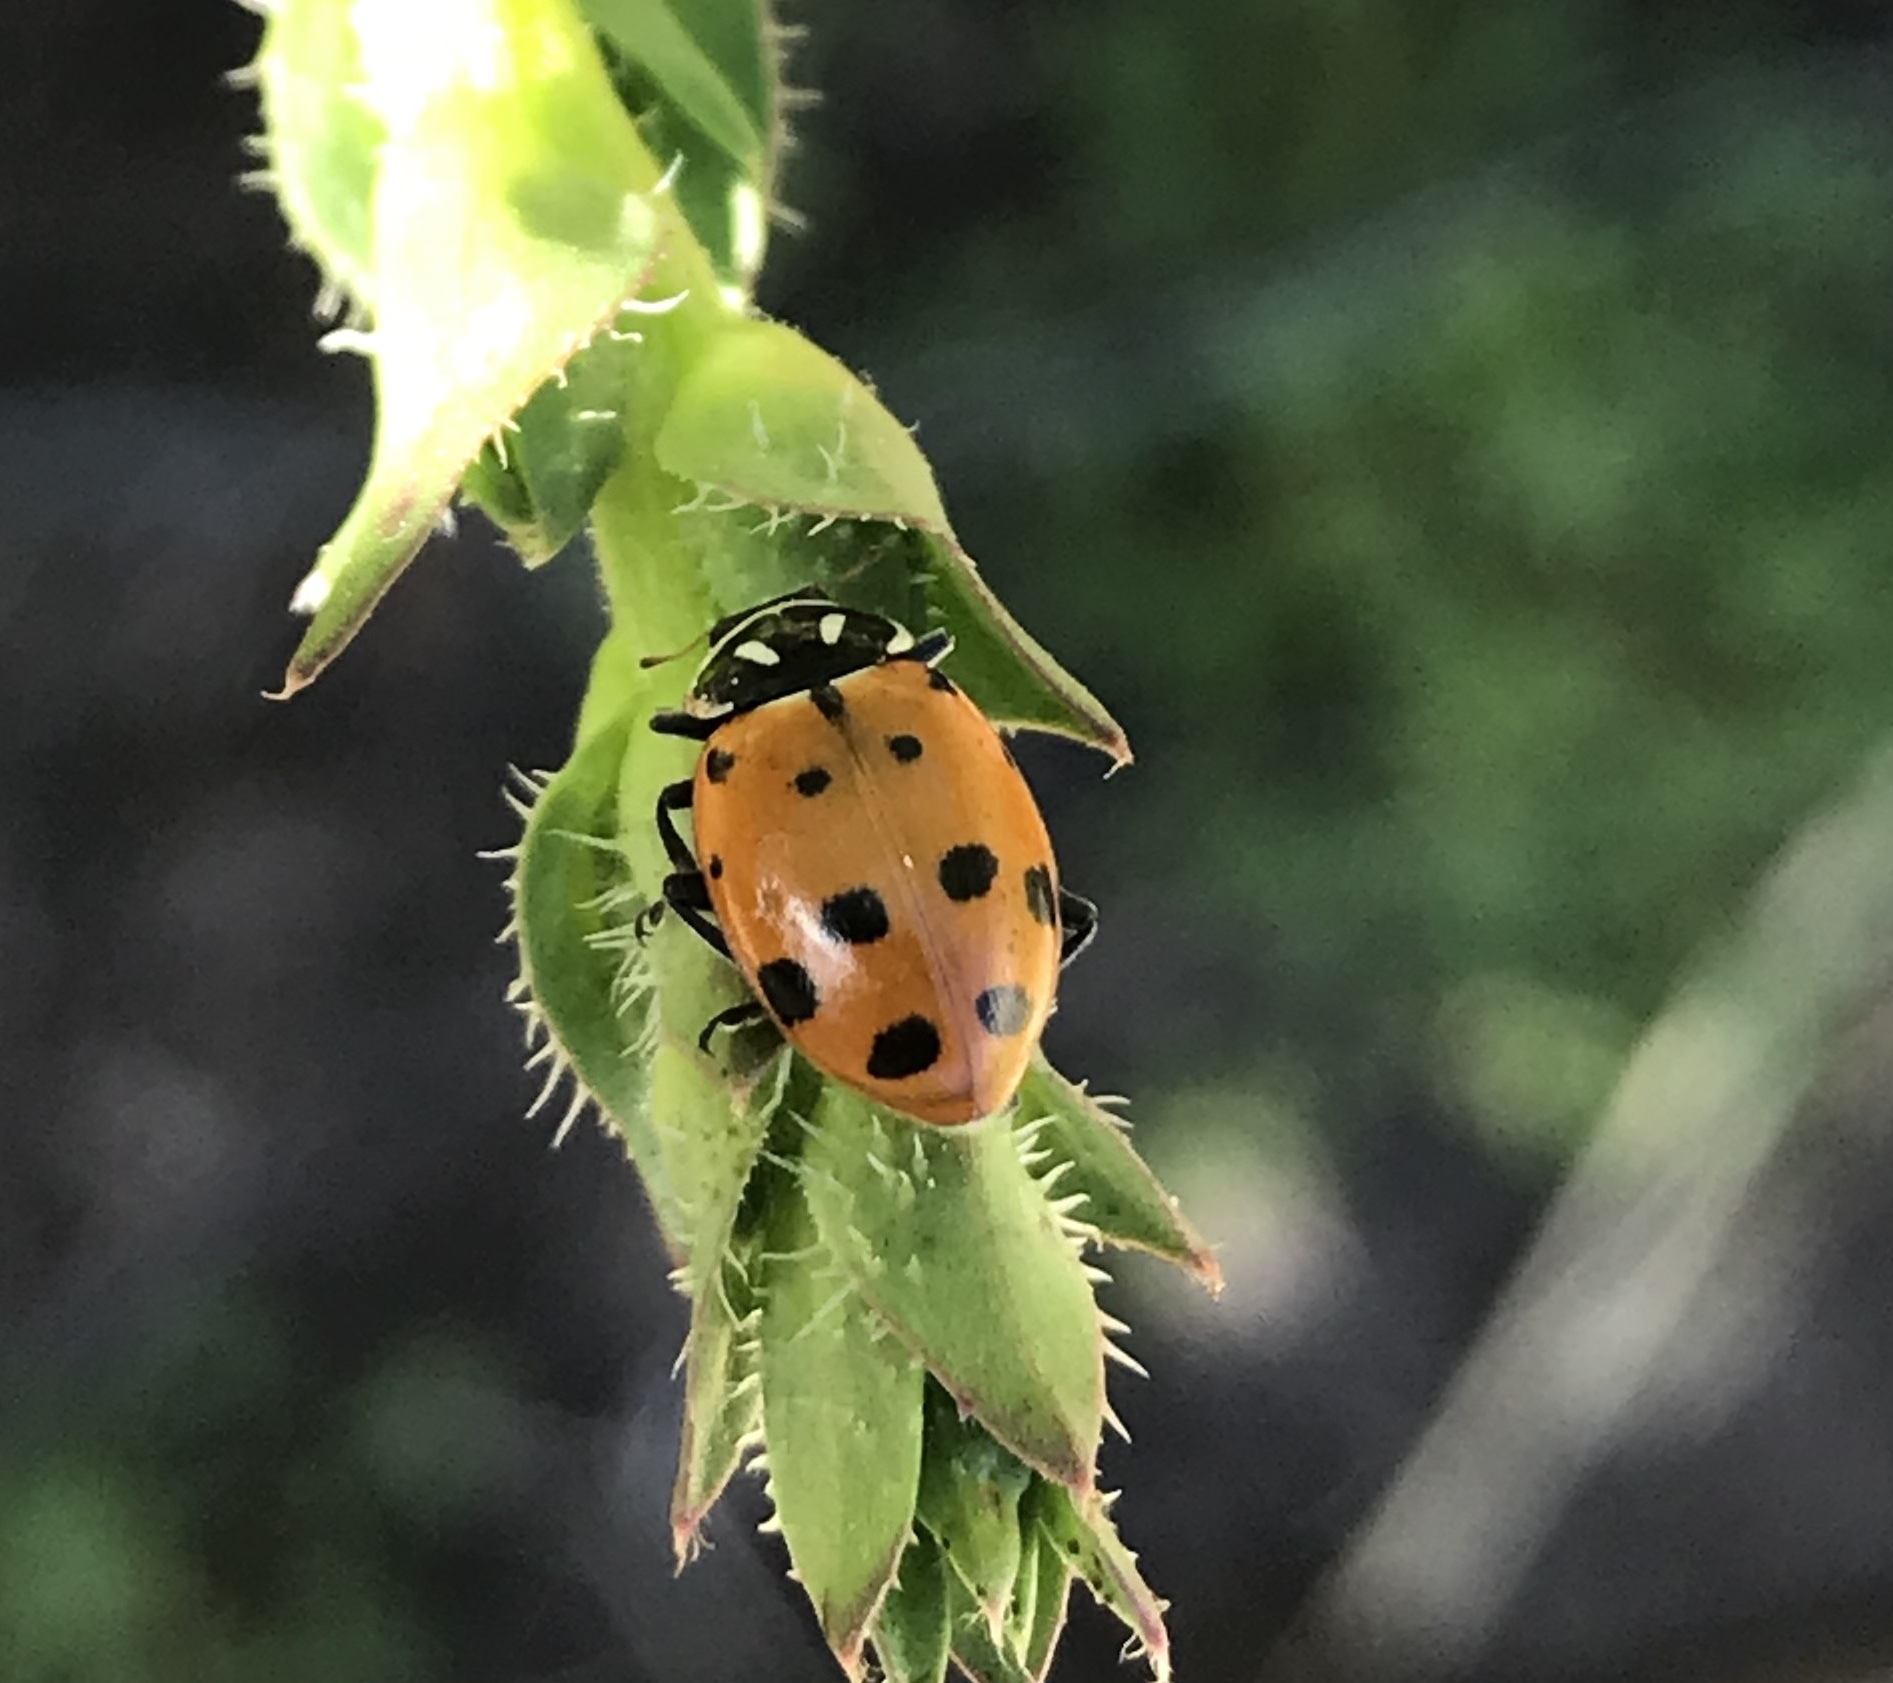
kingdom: Animalia
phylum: Arthropoda
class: Insecta
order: Coleoptera
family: Coccinellidae
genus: Hippodamia
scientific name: Hippodamia convergens
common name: Convergent lady beetle
